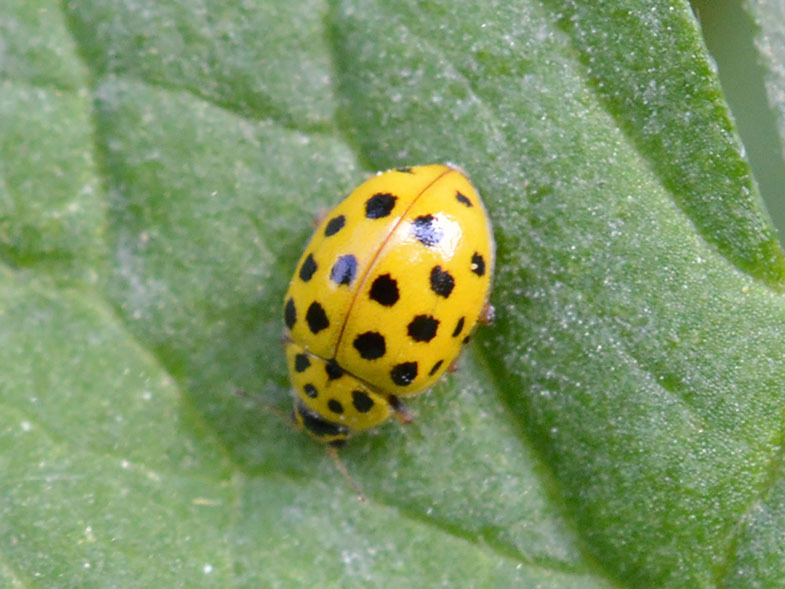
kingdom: Animalia
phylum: Arthropoda
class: Insecta
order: Coleoptera
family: Coccinellidae
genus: Psyllobora
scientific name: Psyllobora vigintiduopunctata
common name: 22-spot ladybird
